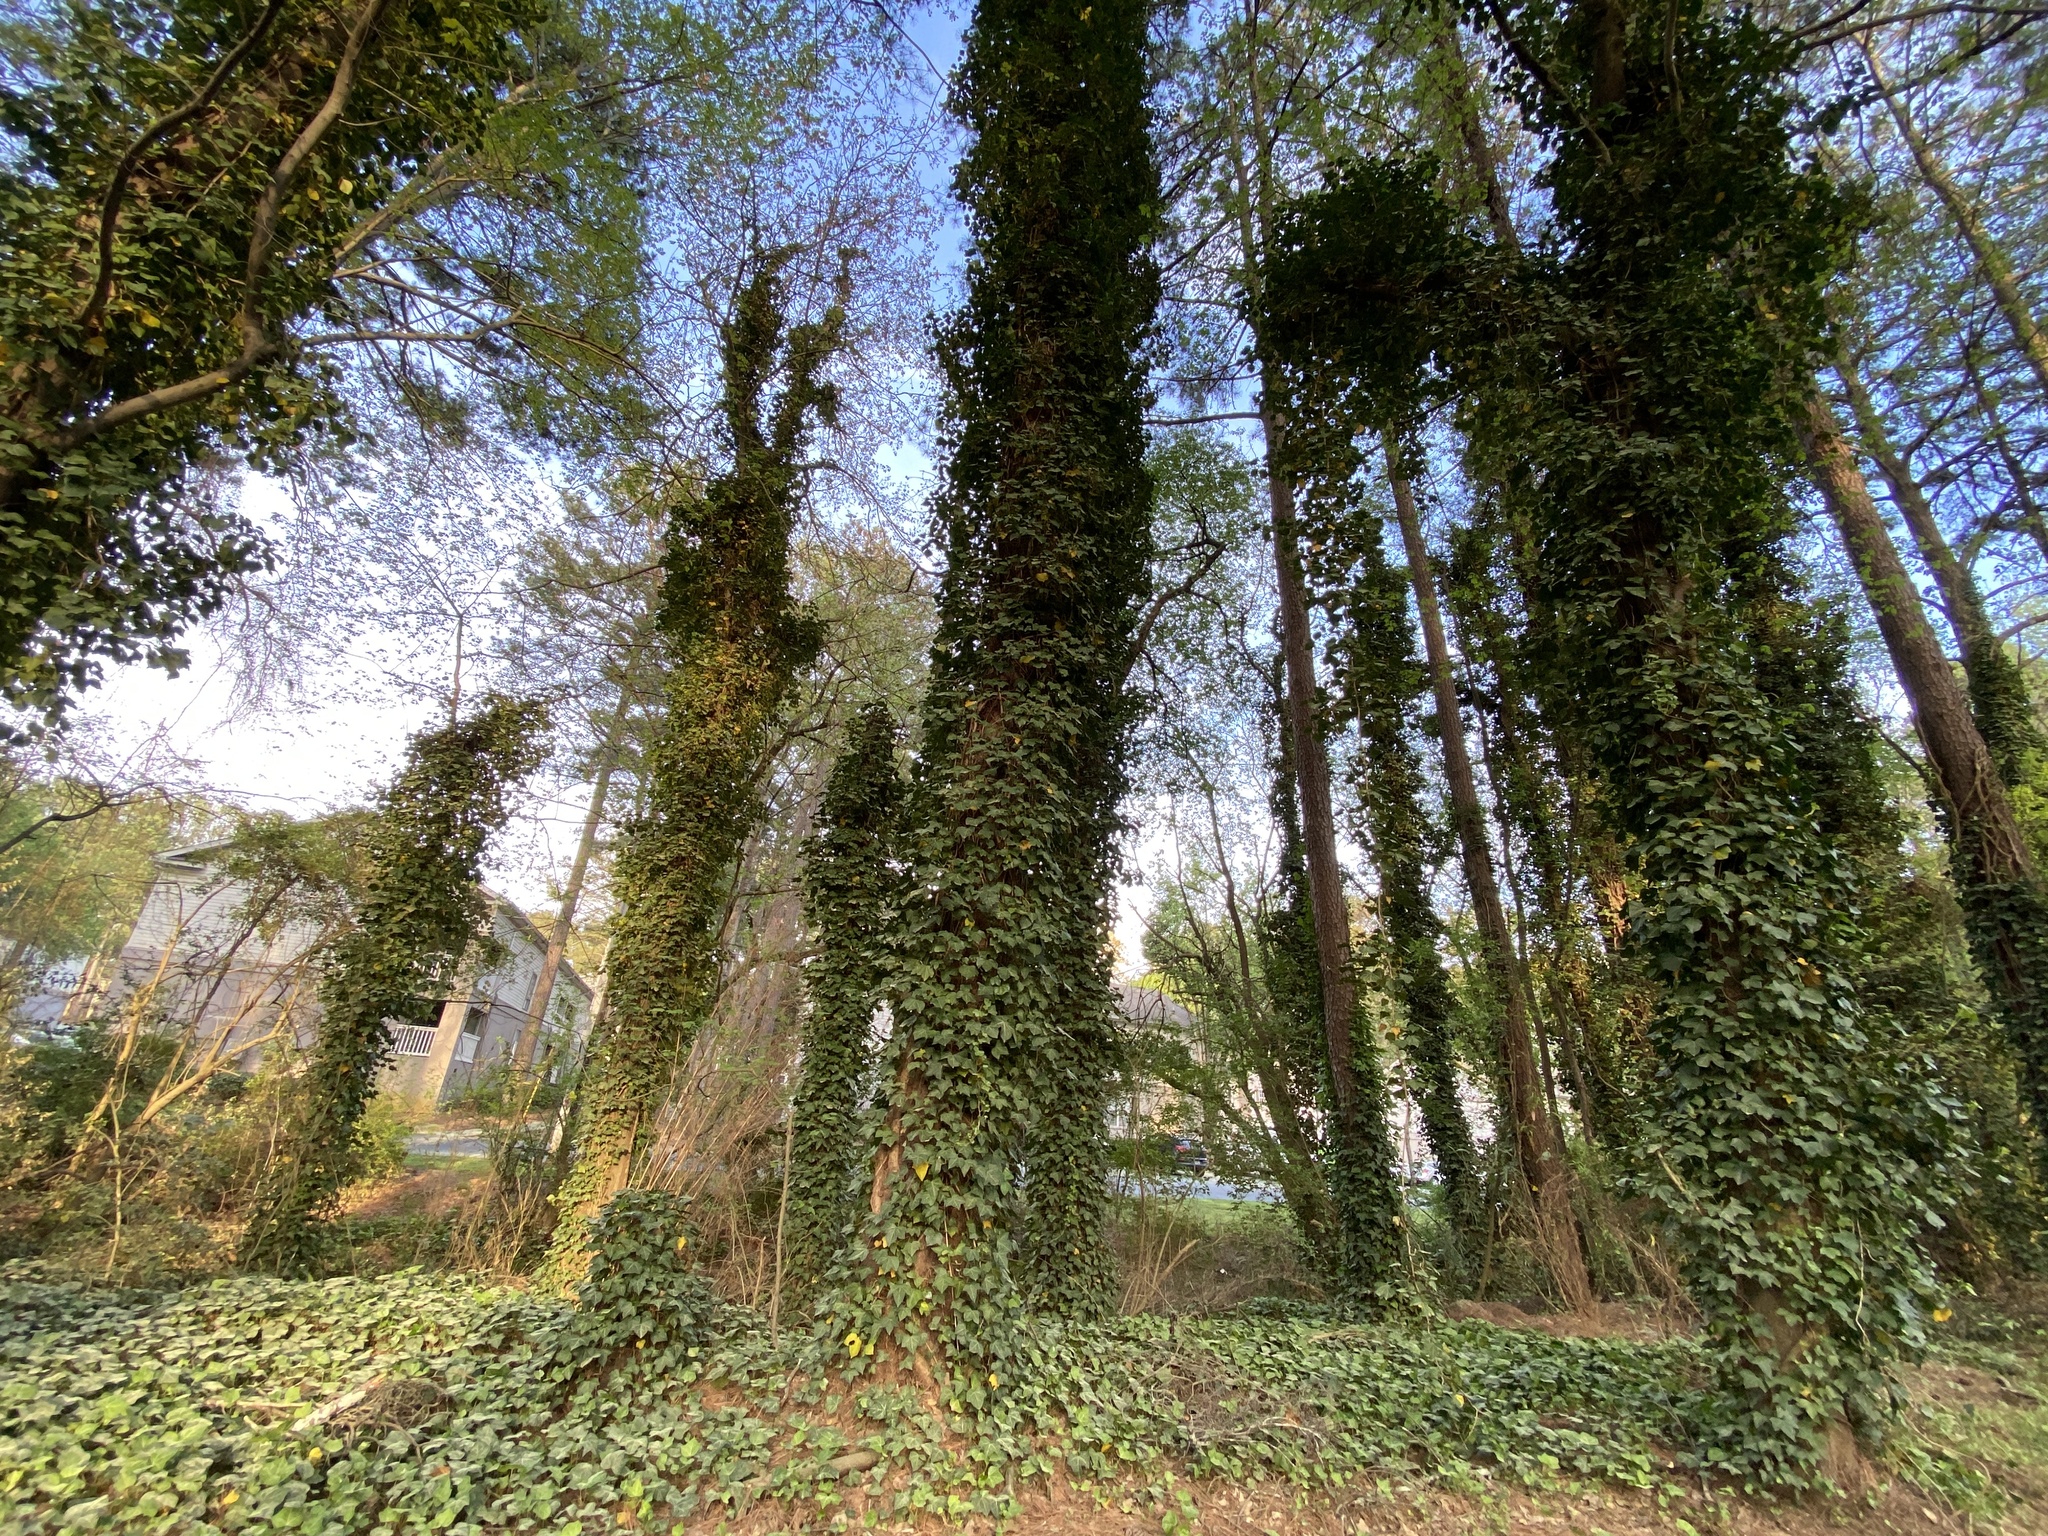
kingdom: Plantae
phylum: Tracheophyta
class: Magnoliopsida
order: Apiales
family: Araliaceae
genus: Hedera
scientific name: Hedera helix
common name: Ivy
